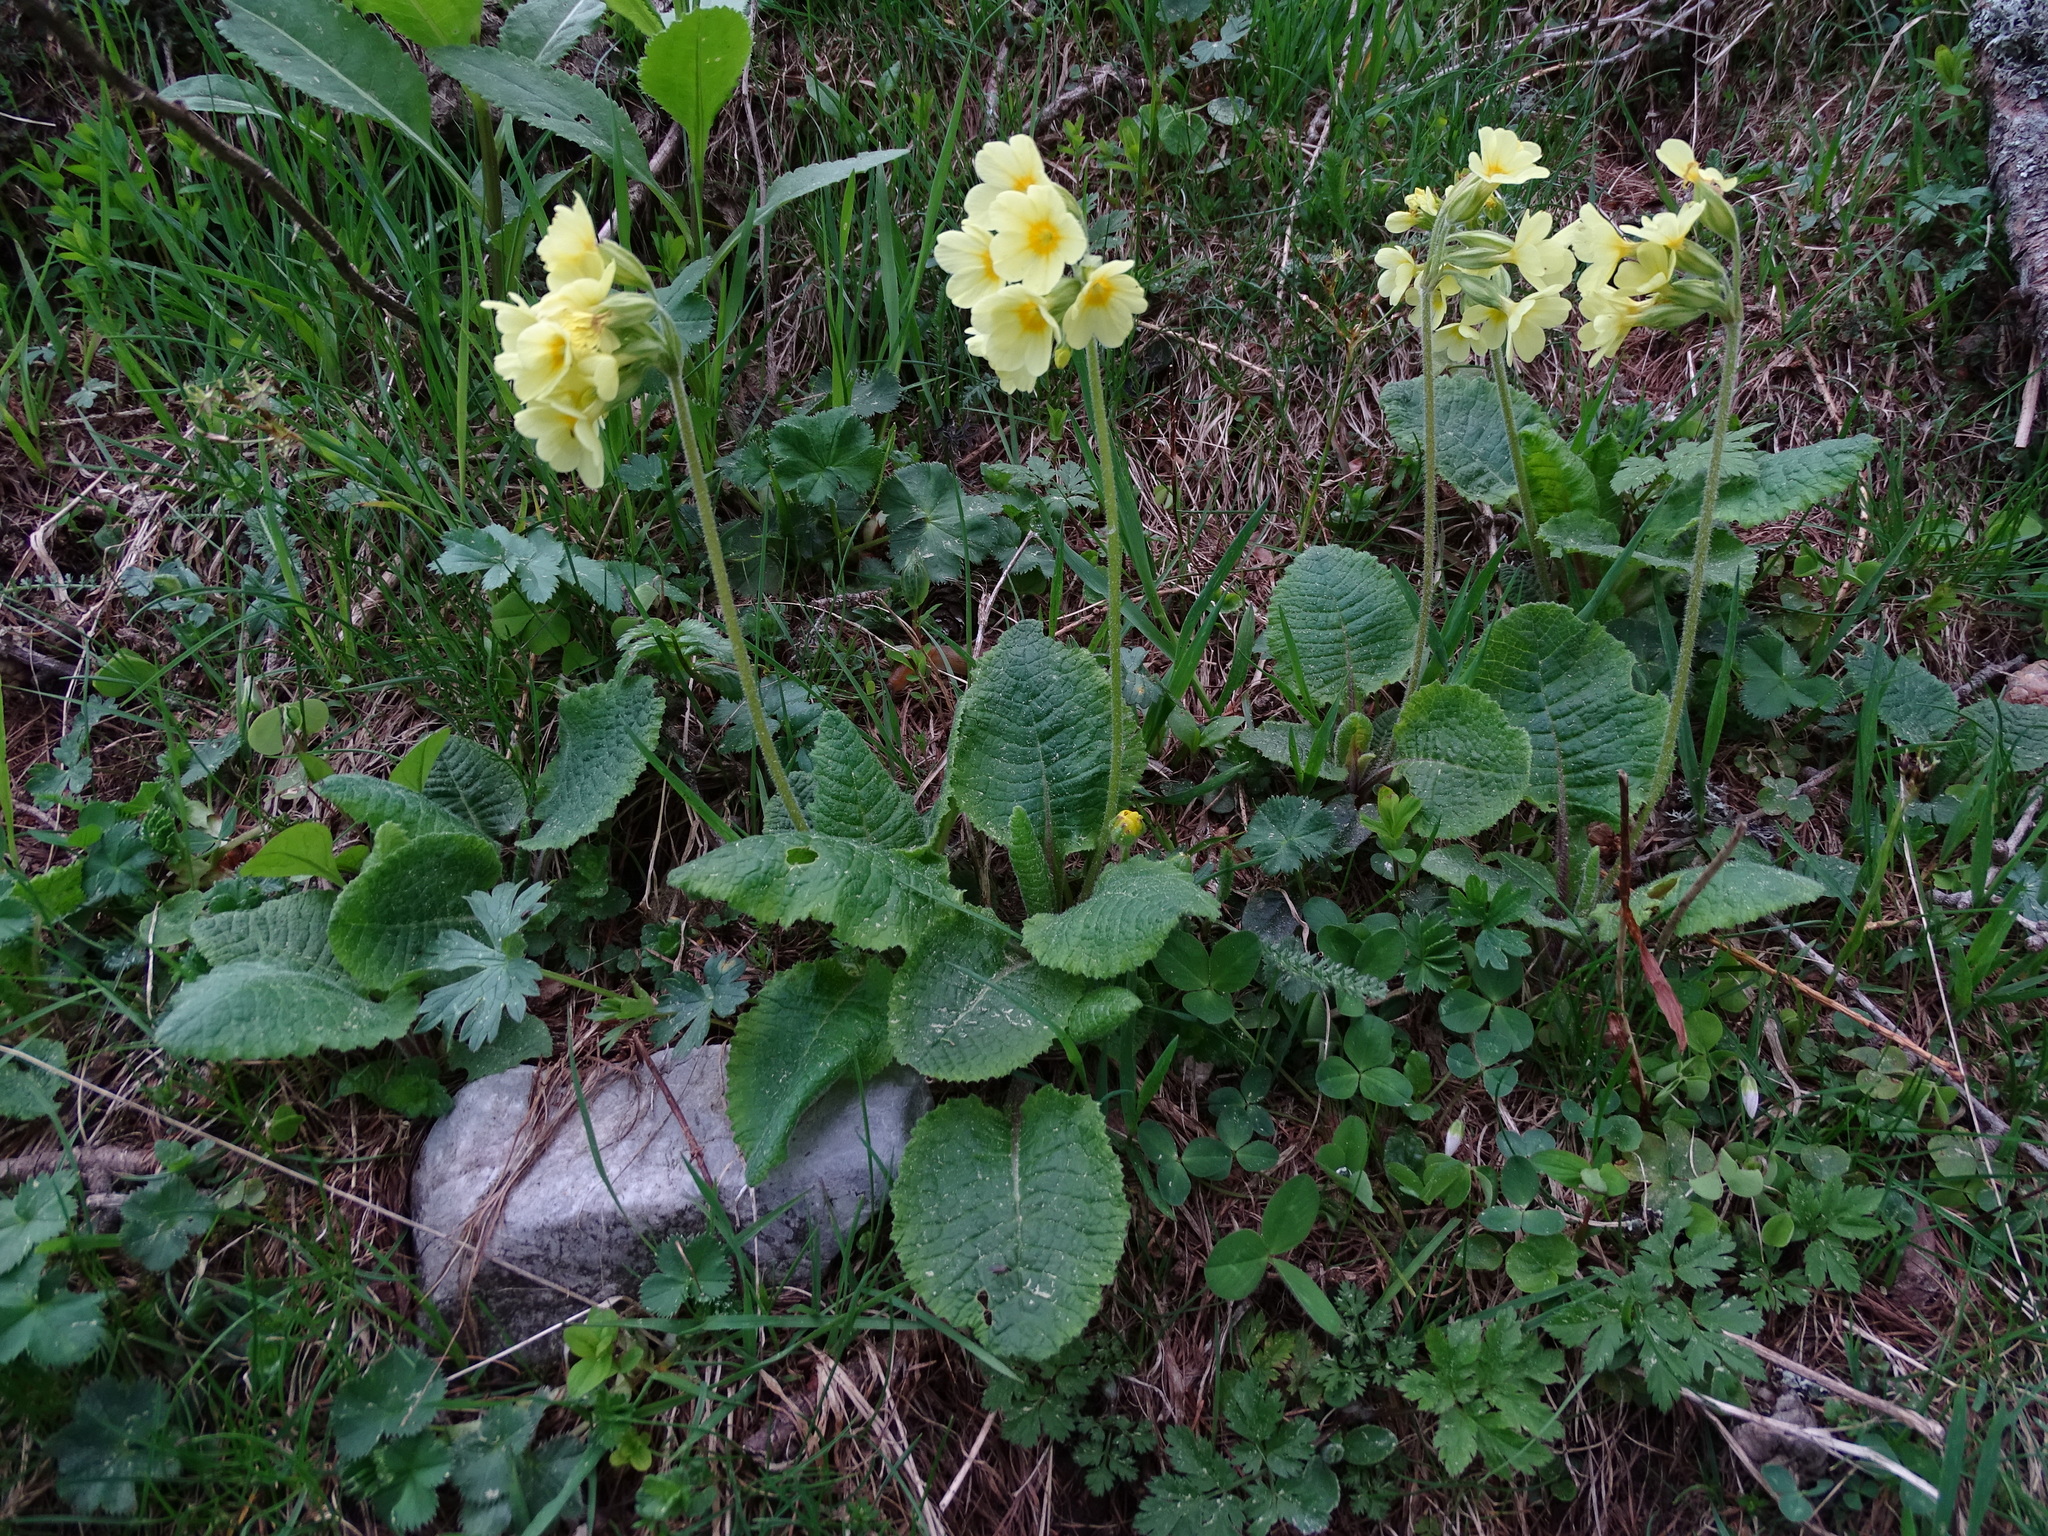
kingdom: Plantae
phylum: Tracheophyta
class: Magnoliopsida
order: Ericales
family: Primulaceae
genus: Primula
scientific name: Primula elatior
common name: Oxlip
